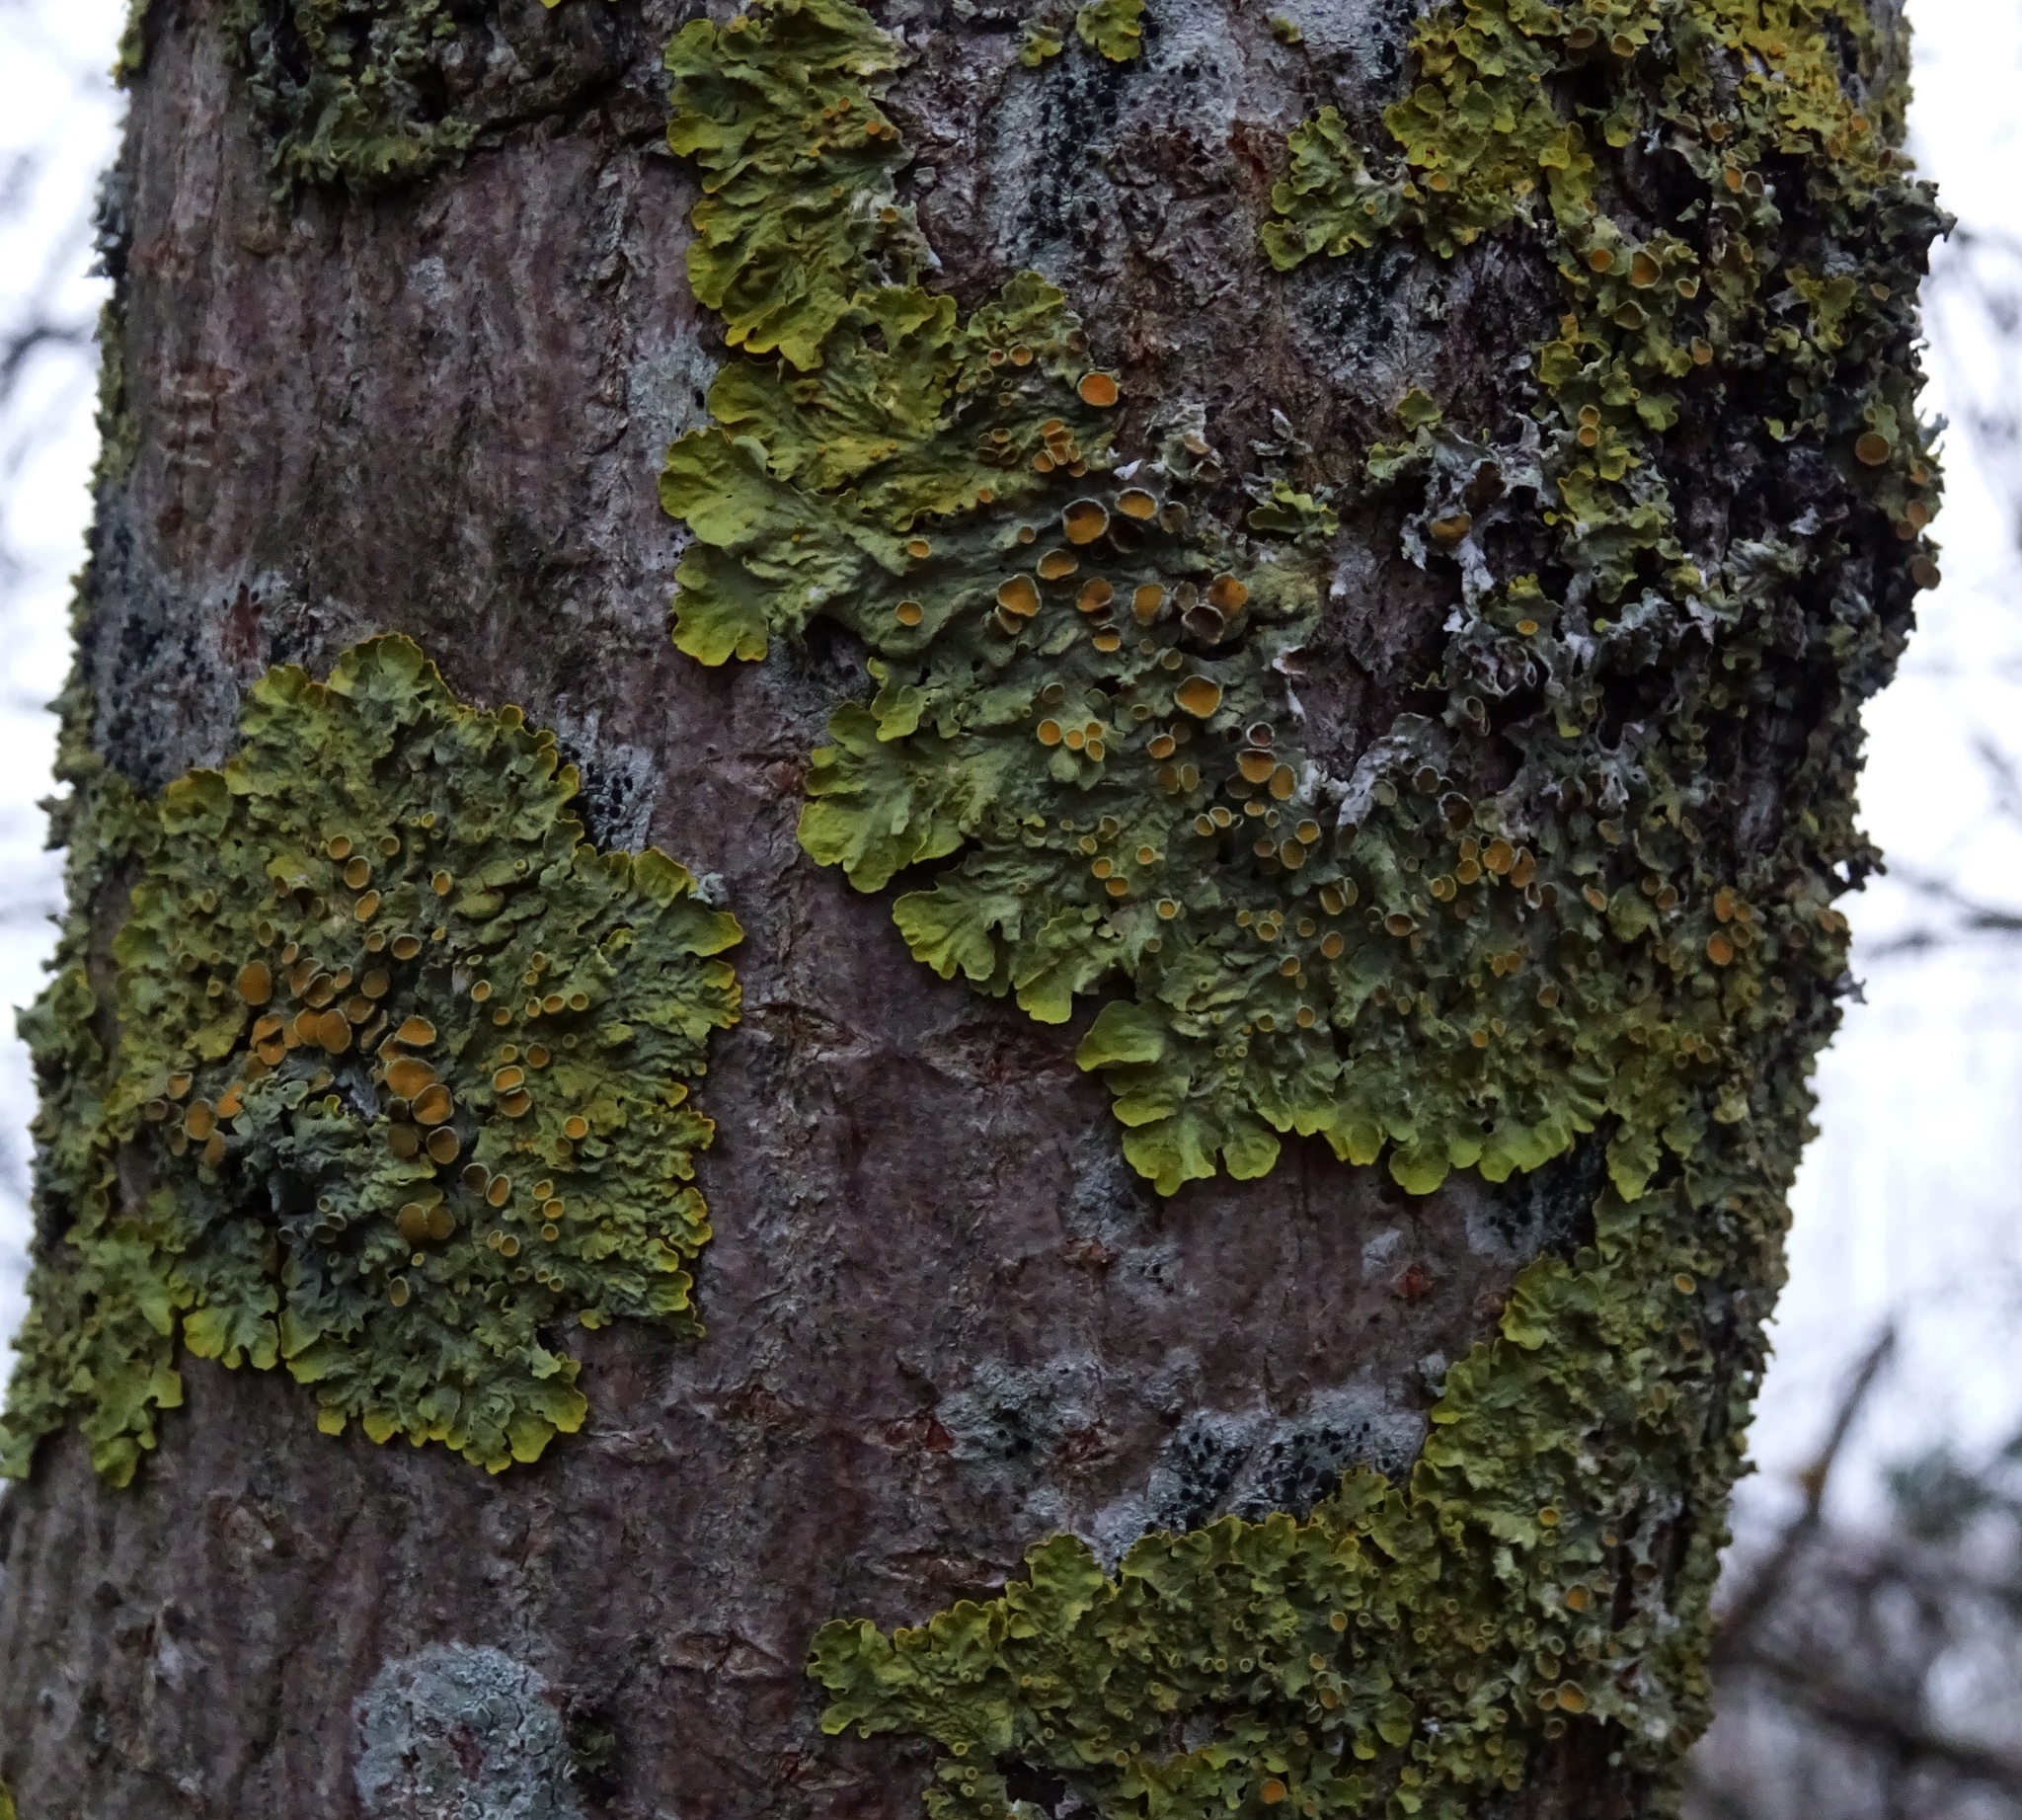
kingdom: Fungi
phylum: Ascomycota
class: Lecanoromycetes
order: Teloschistales
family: Teloschistaceae
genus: Xanthoria
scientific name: Xanthoria parietina
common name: Common orange lichen
